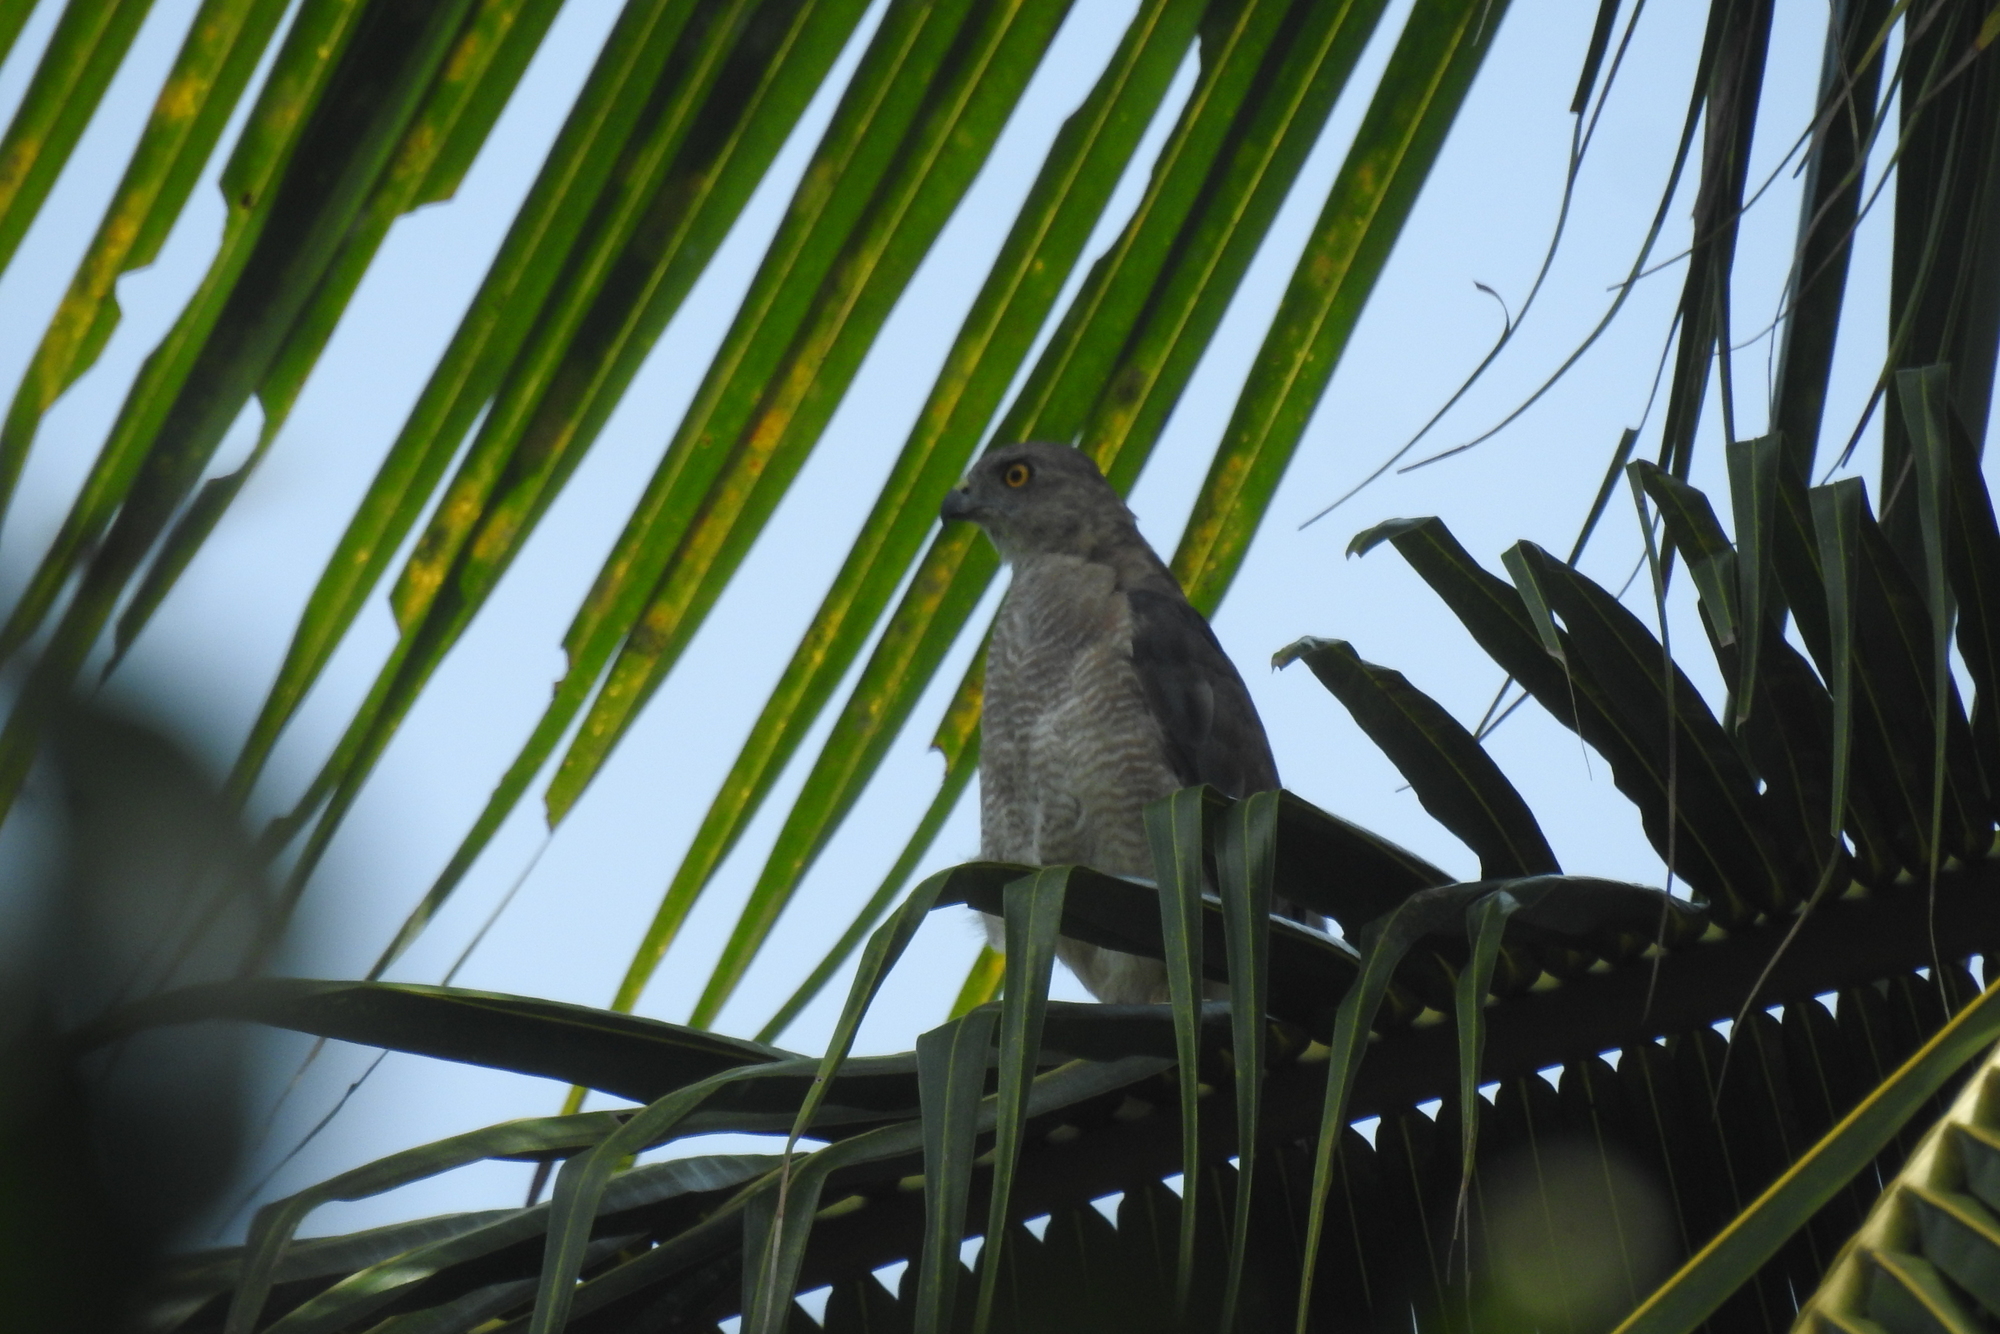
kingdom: Animalia
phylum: Chordata
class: Aves
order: Accipitriformes
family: Accipitridae
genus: Accipiter
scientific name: Accipiter badius
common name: Shikra
